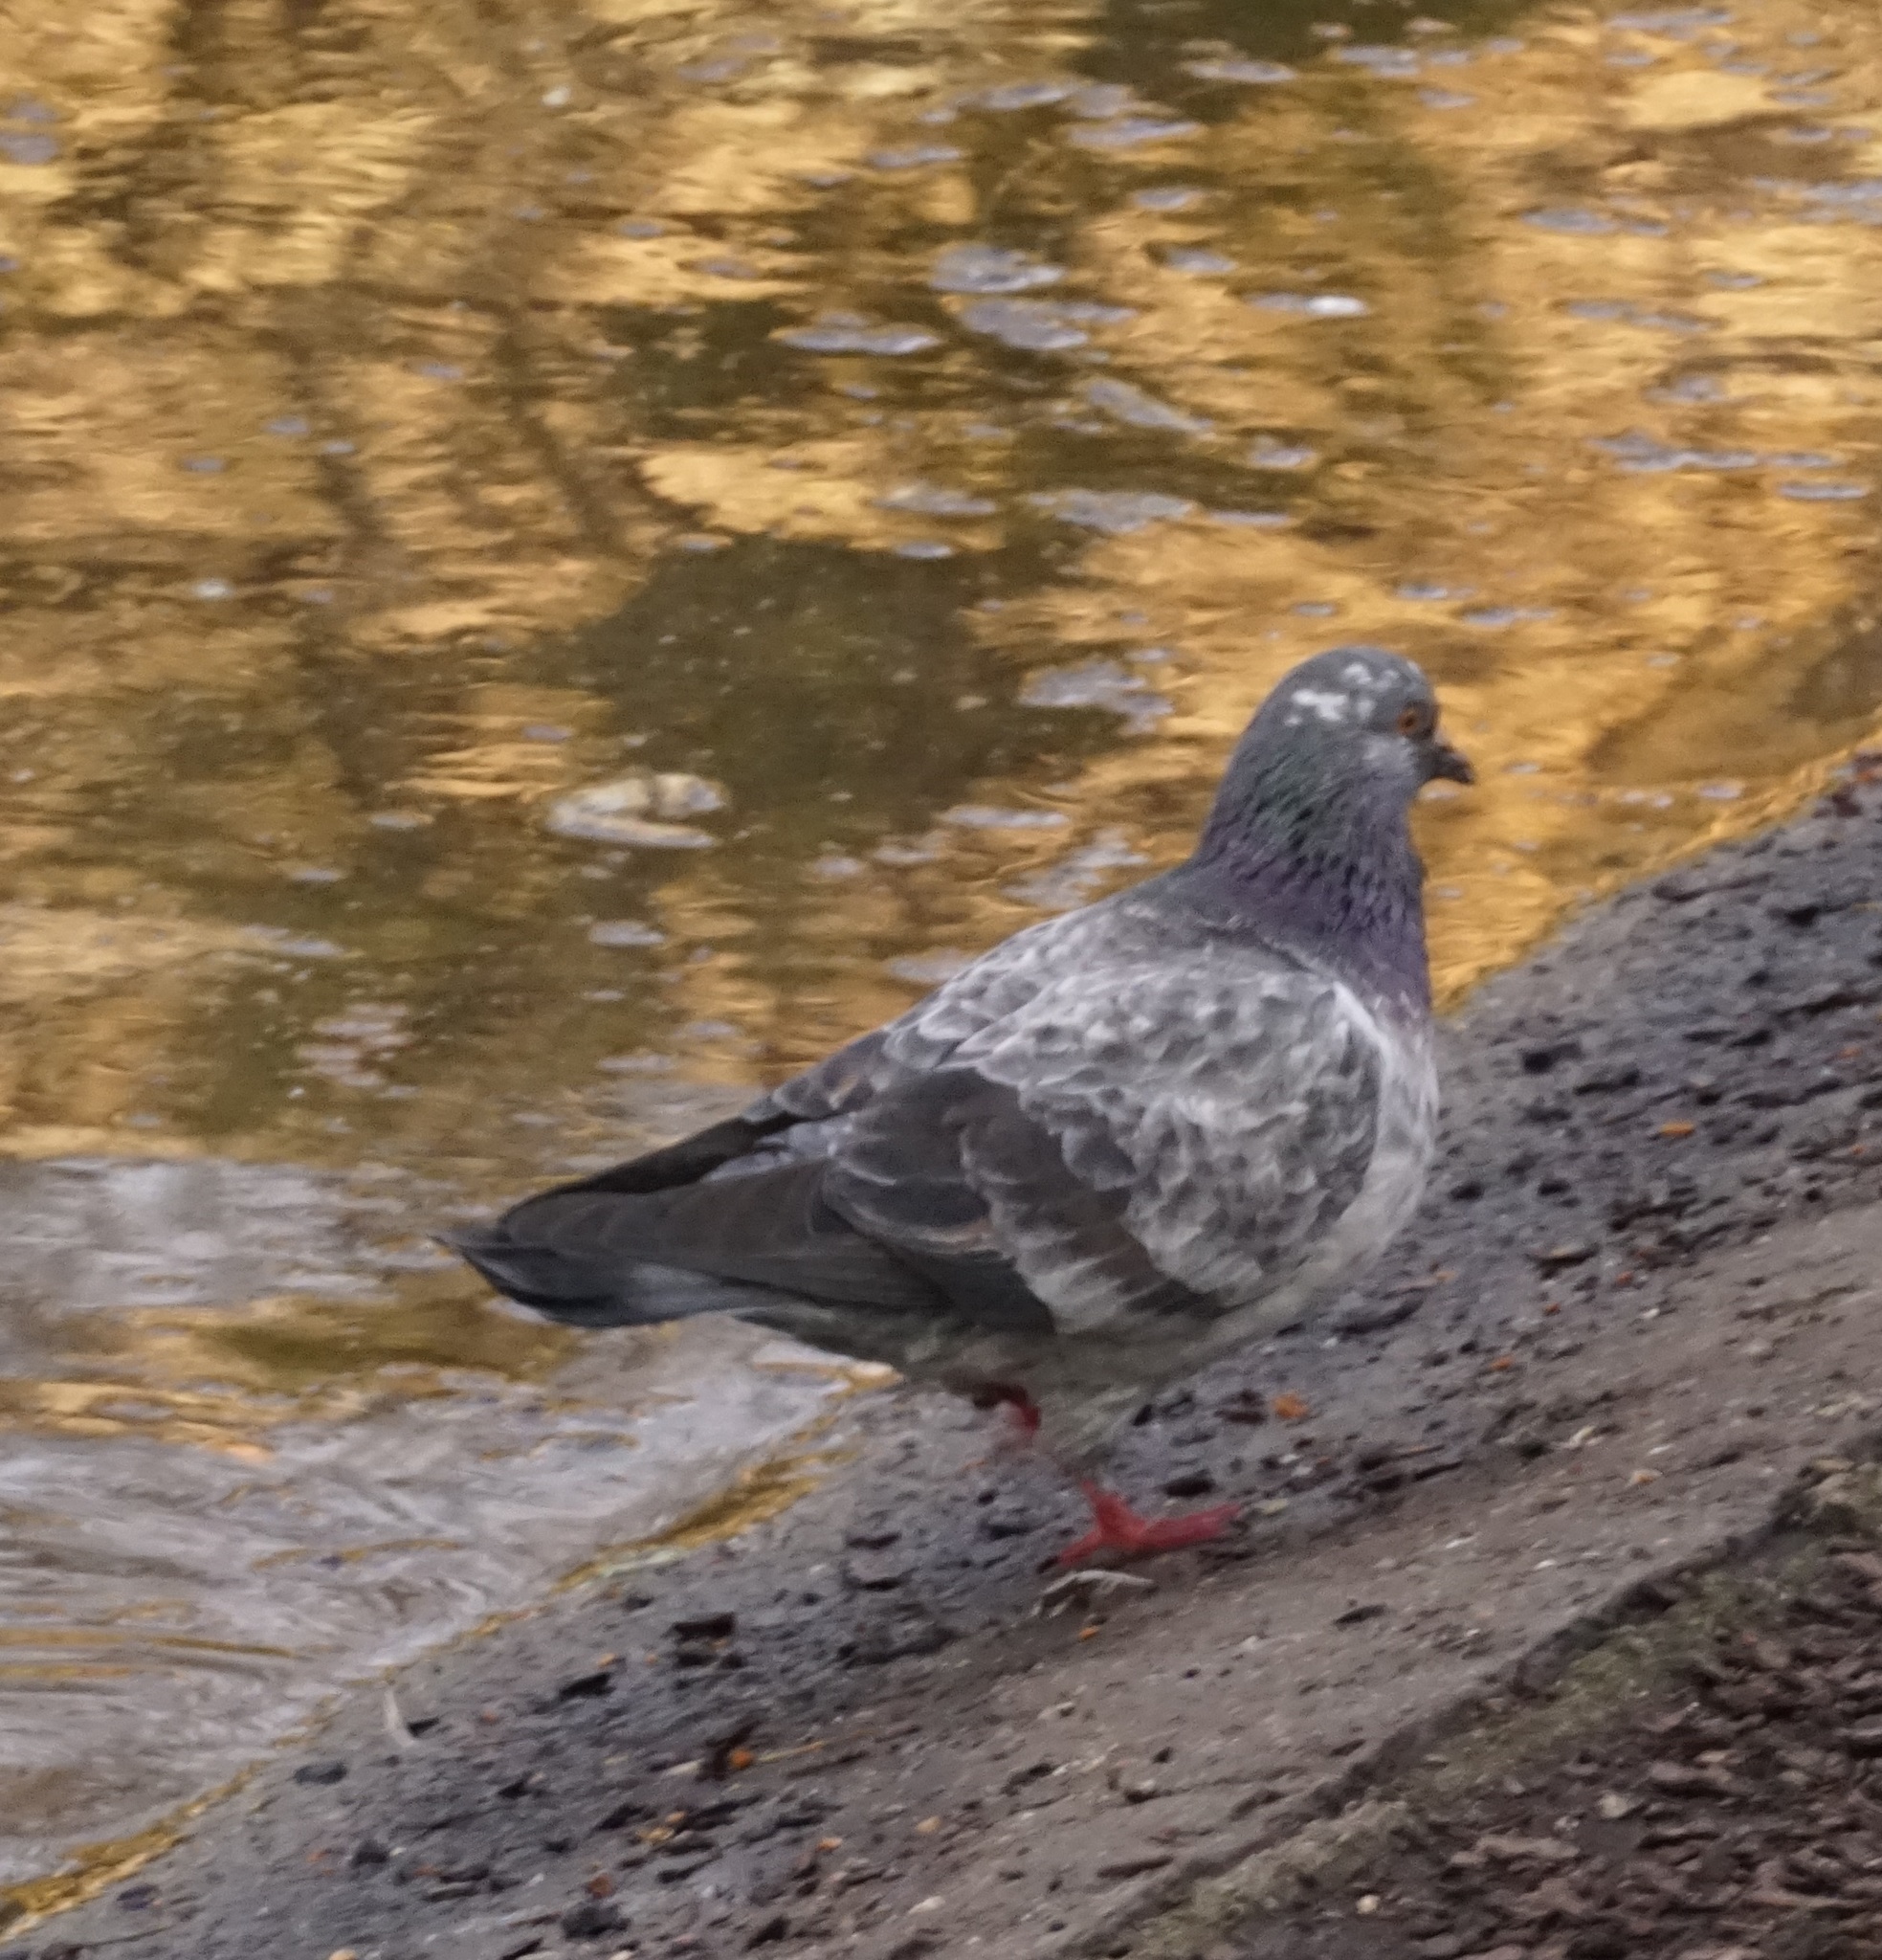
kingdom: Animalia
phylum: Chordata
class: Aves
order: Columbiformes
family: Columbidae
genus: Columba
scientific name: Columba livia
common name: Rock pigeon
